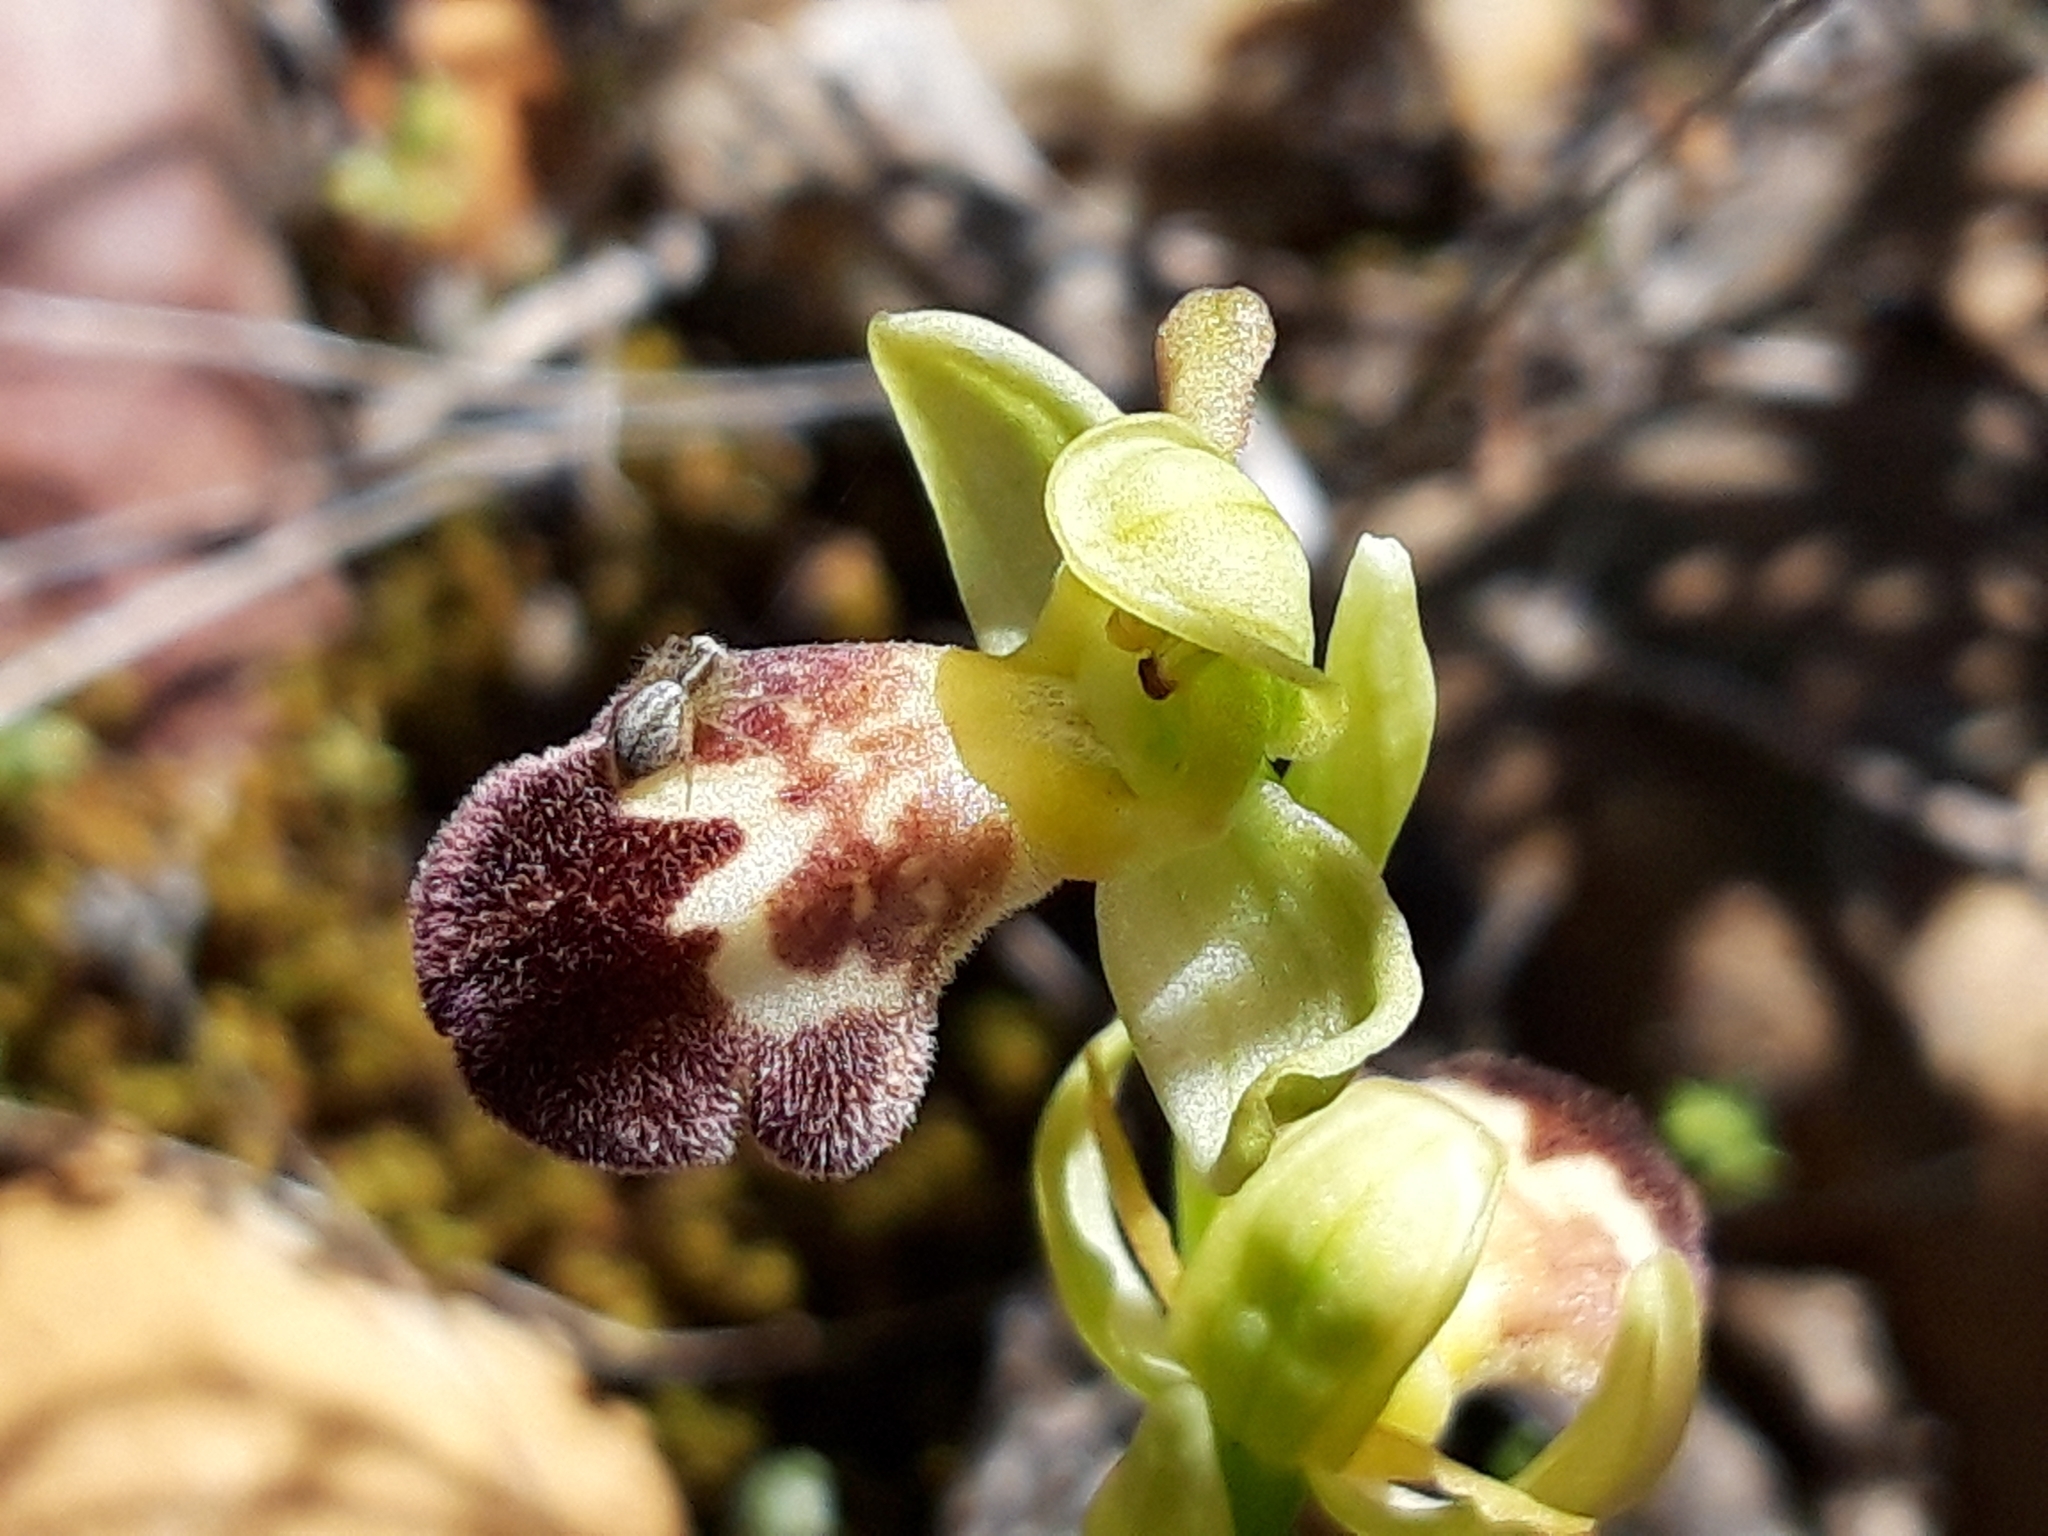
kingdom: Plantae
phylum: Tracheophyta
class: Liliopsida
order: Asparagales
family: Orchidaceae
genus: Ophrys
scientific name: Ophrys omegaifera
